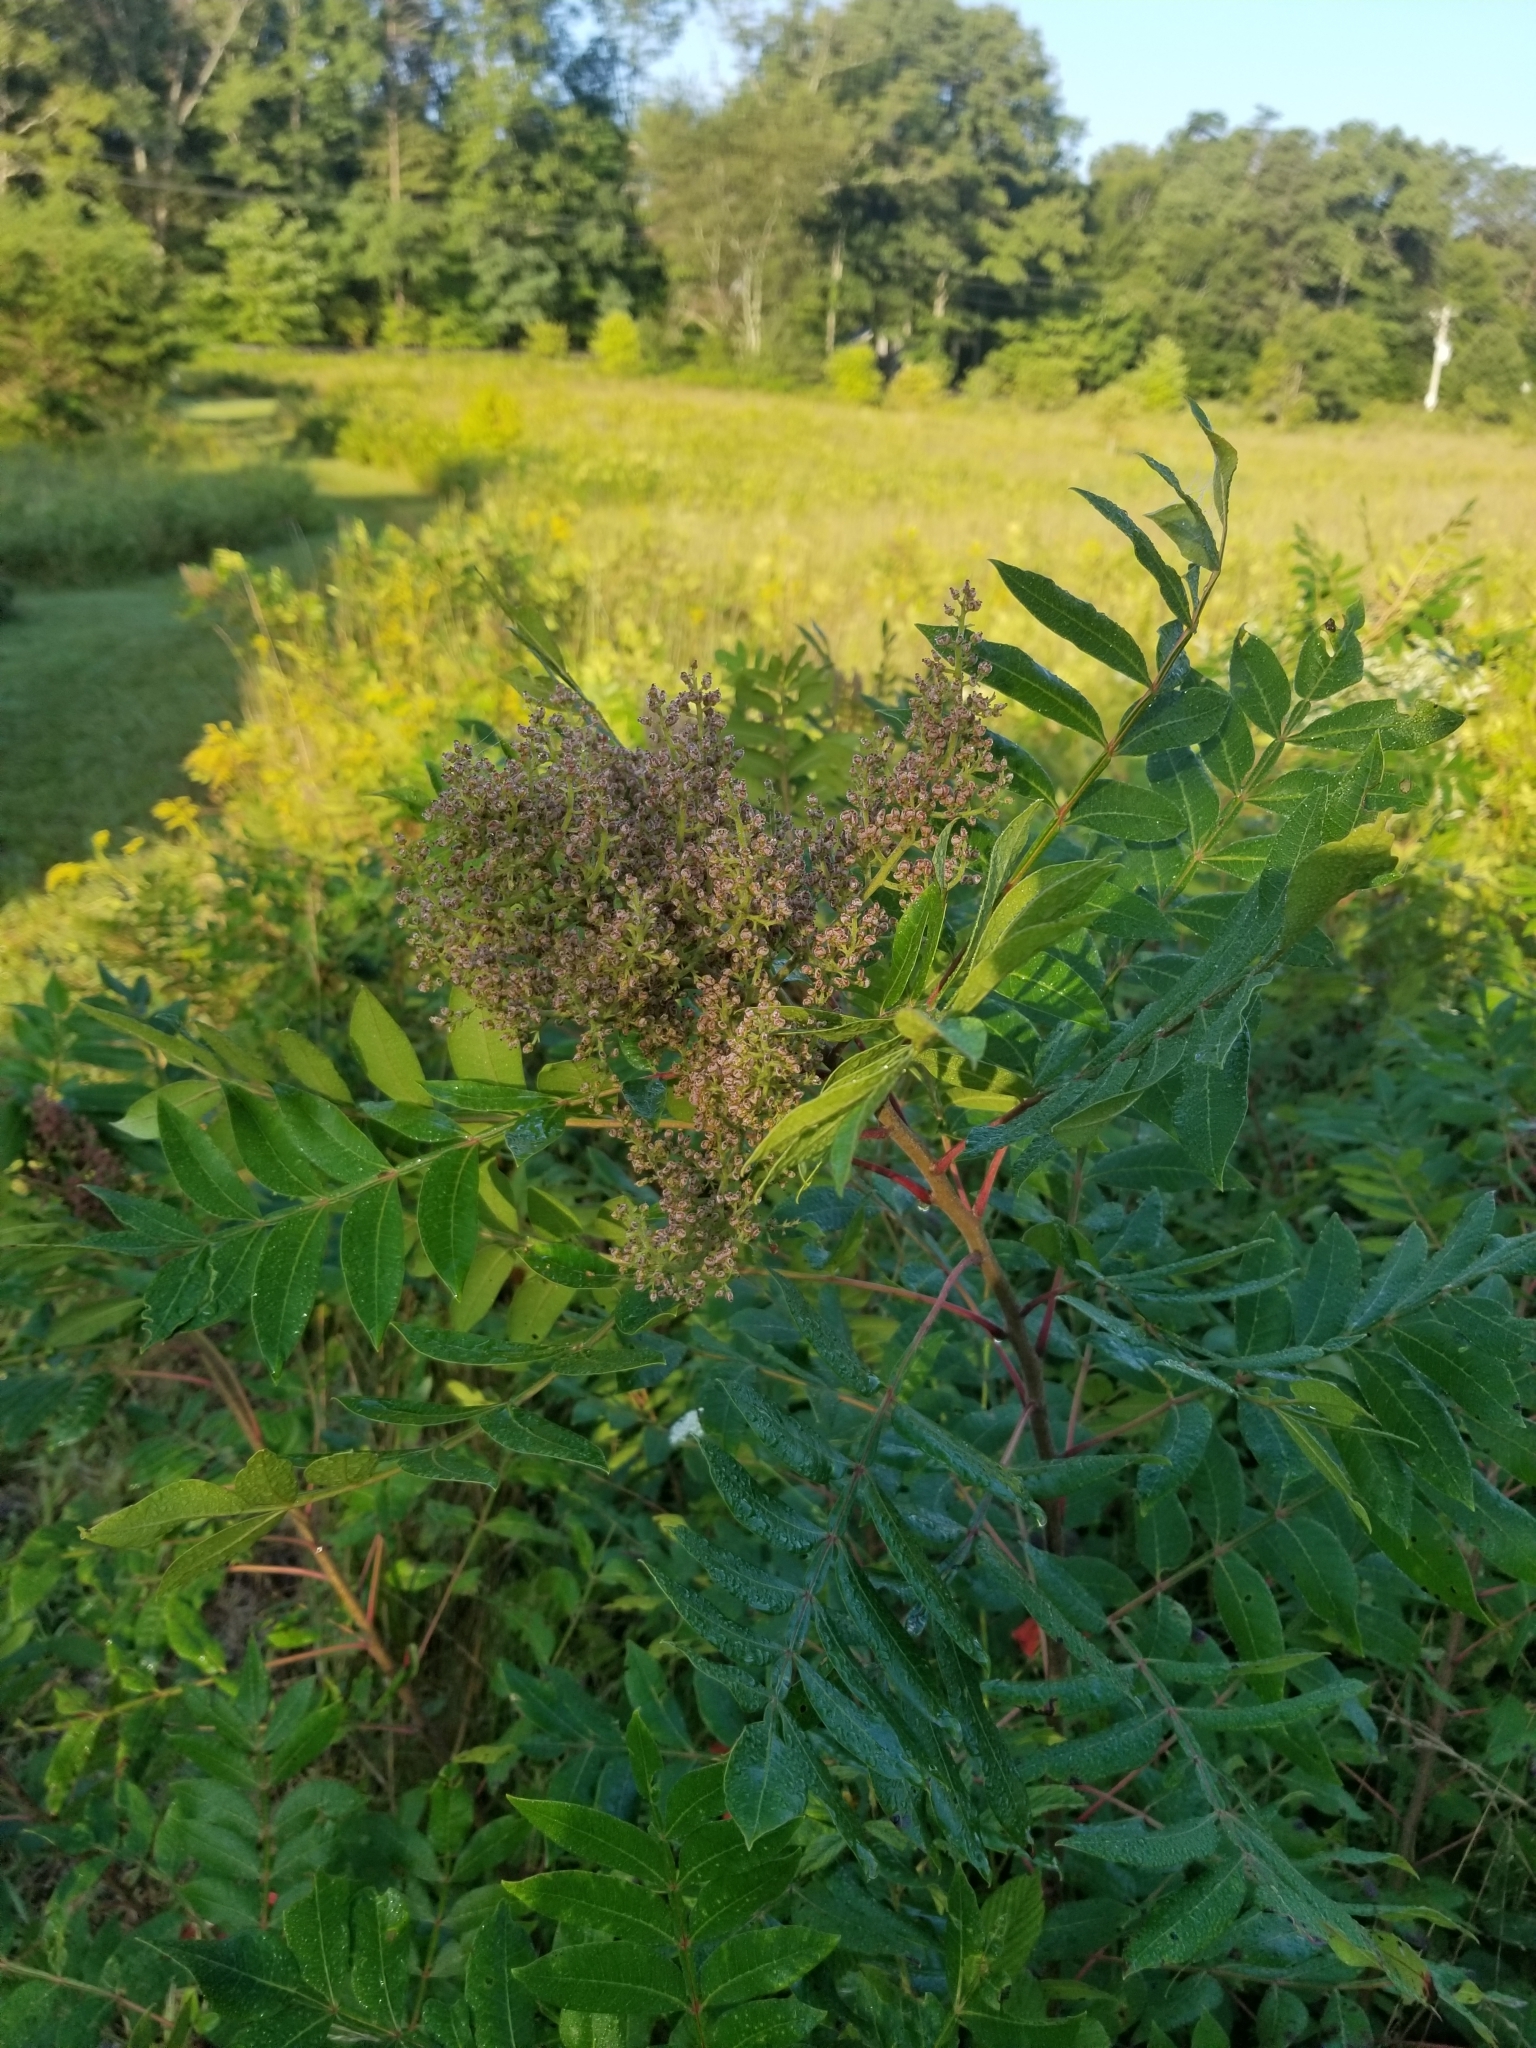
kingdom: Plantae
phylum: Tracheophyta
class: Magnoliopsida
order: Sapindales
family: Anacardiaceae
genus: Rhus
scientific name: Rhus copallina
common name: Shining sumac
